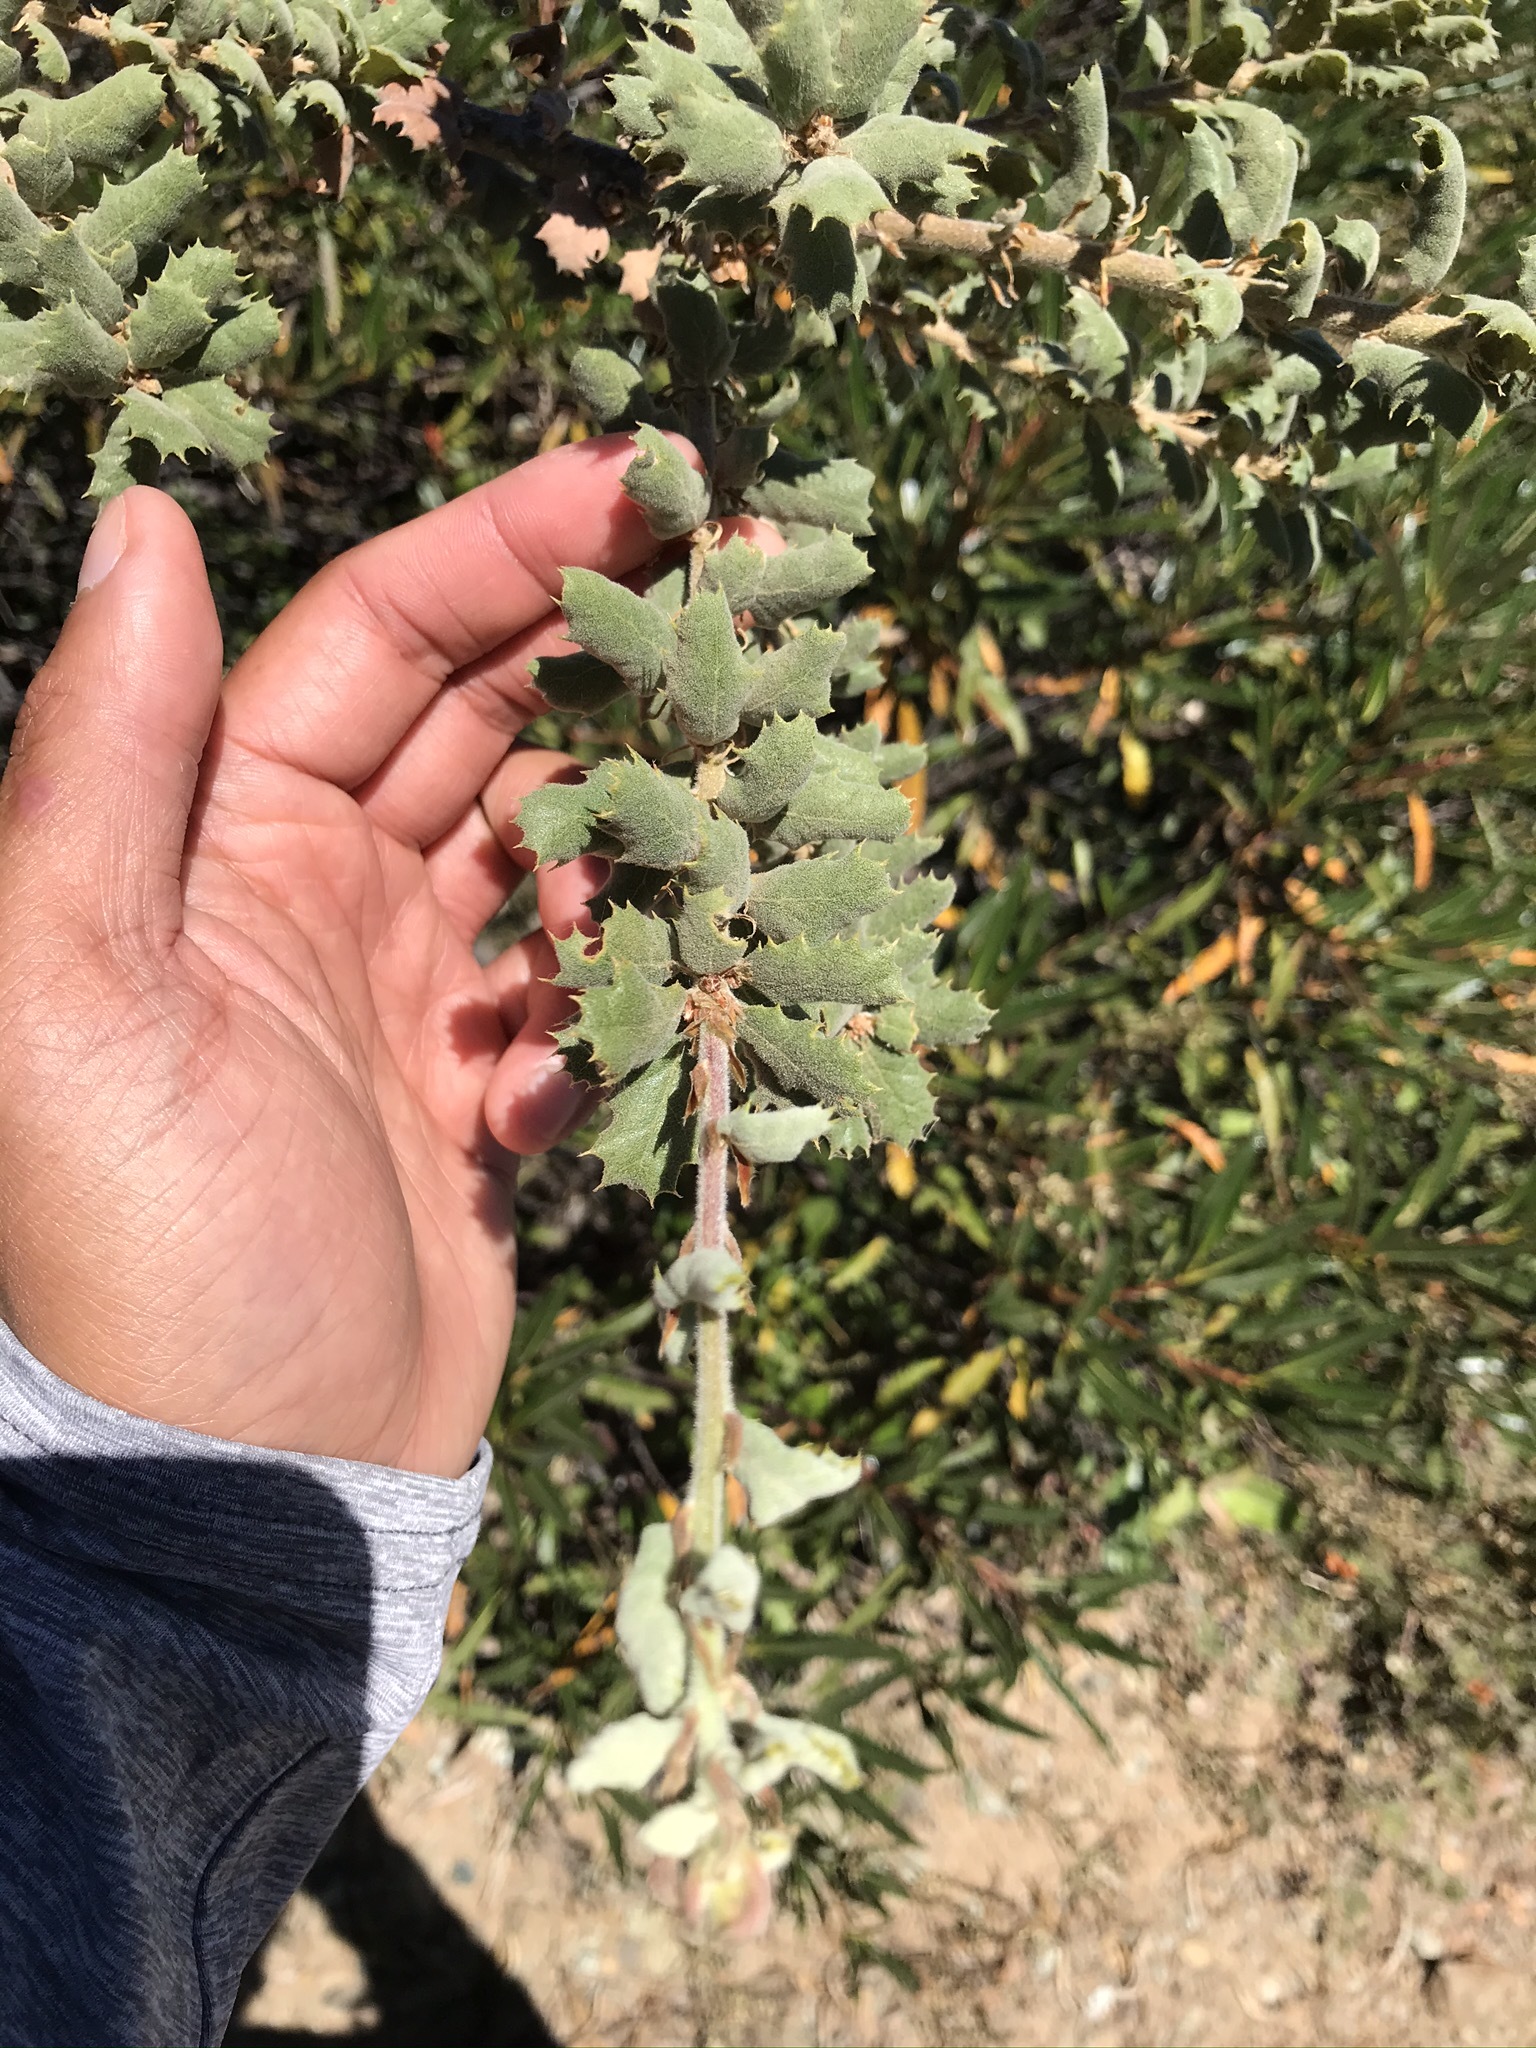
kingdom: Plantae
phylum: Tracheophyta
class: Magnoliopsida
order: Fagales
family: Fagaceae
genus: Quercus
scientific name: Quercus durata
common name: Leather oak
